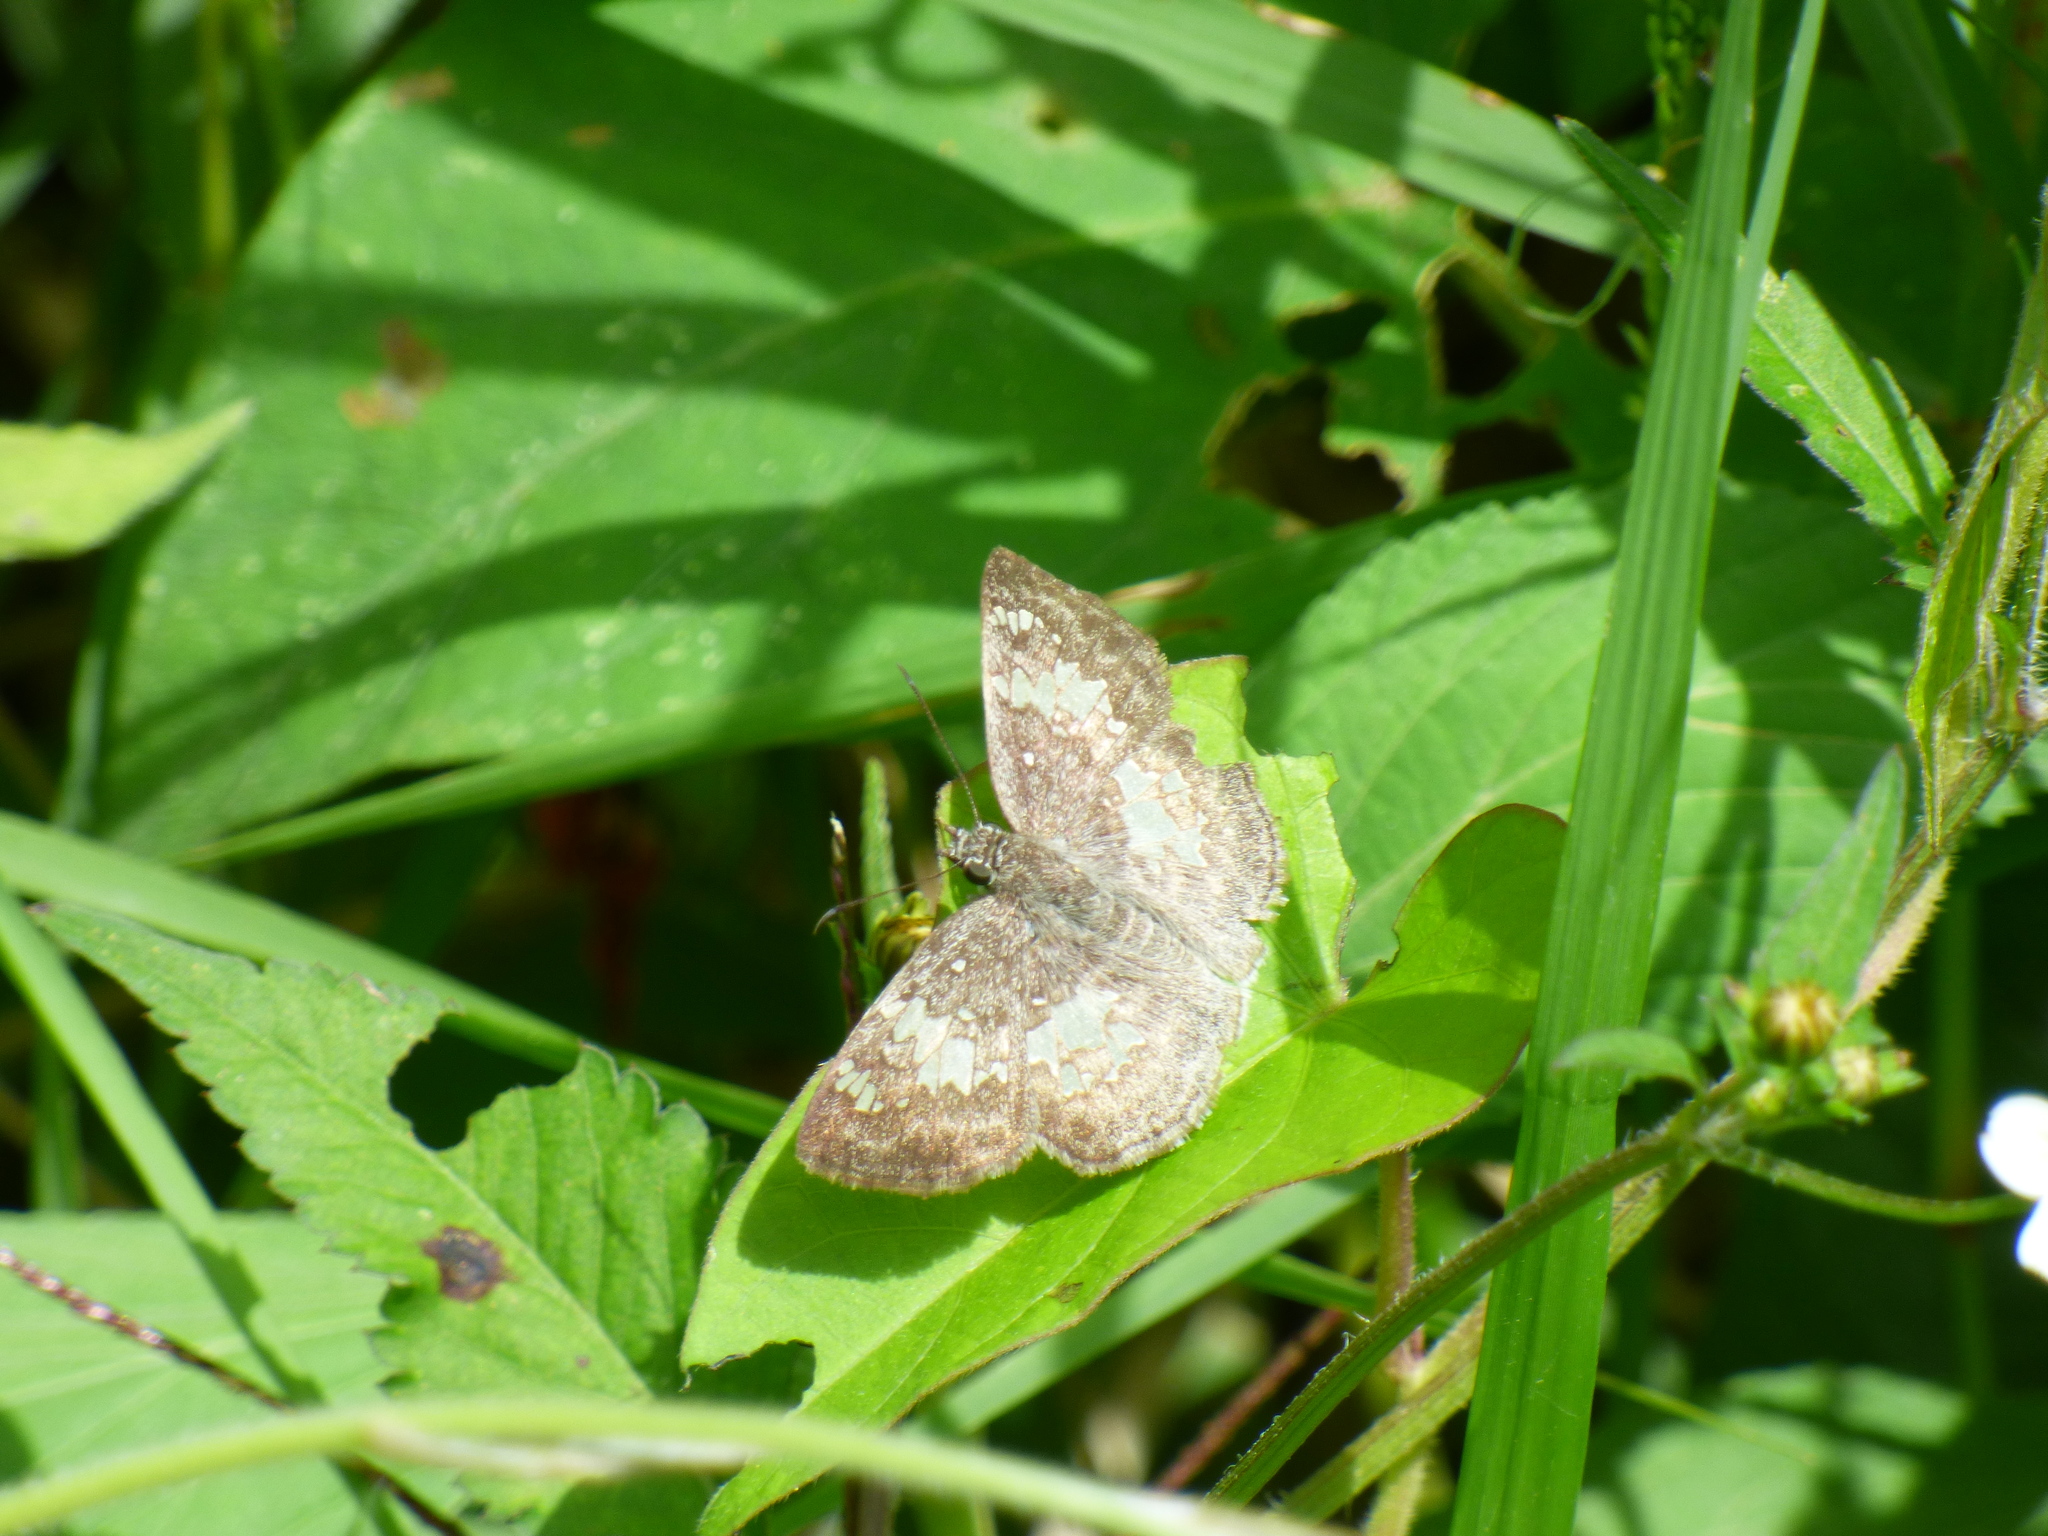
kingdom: Animalia
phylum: Arthropoda
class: Insecta
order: Lepidoptera
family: Hesperiidae
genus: Xenophanes
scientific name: Xenophanes tryxus
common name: Glassy-winged skipper
